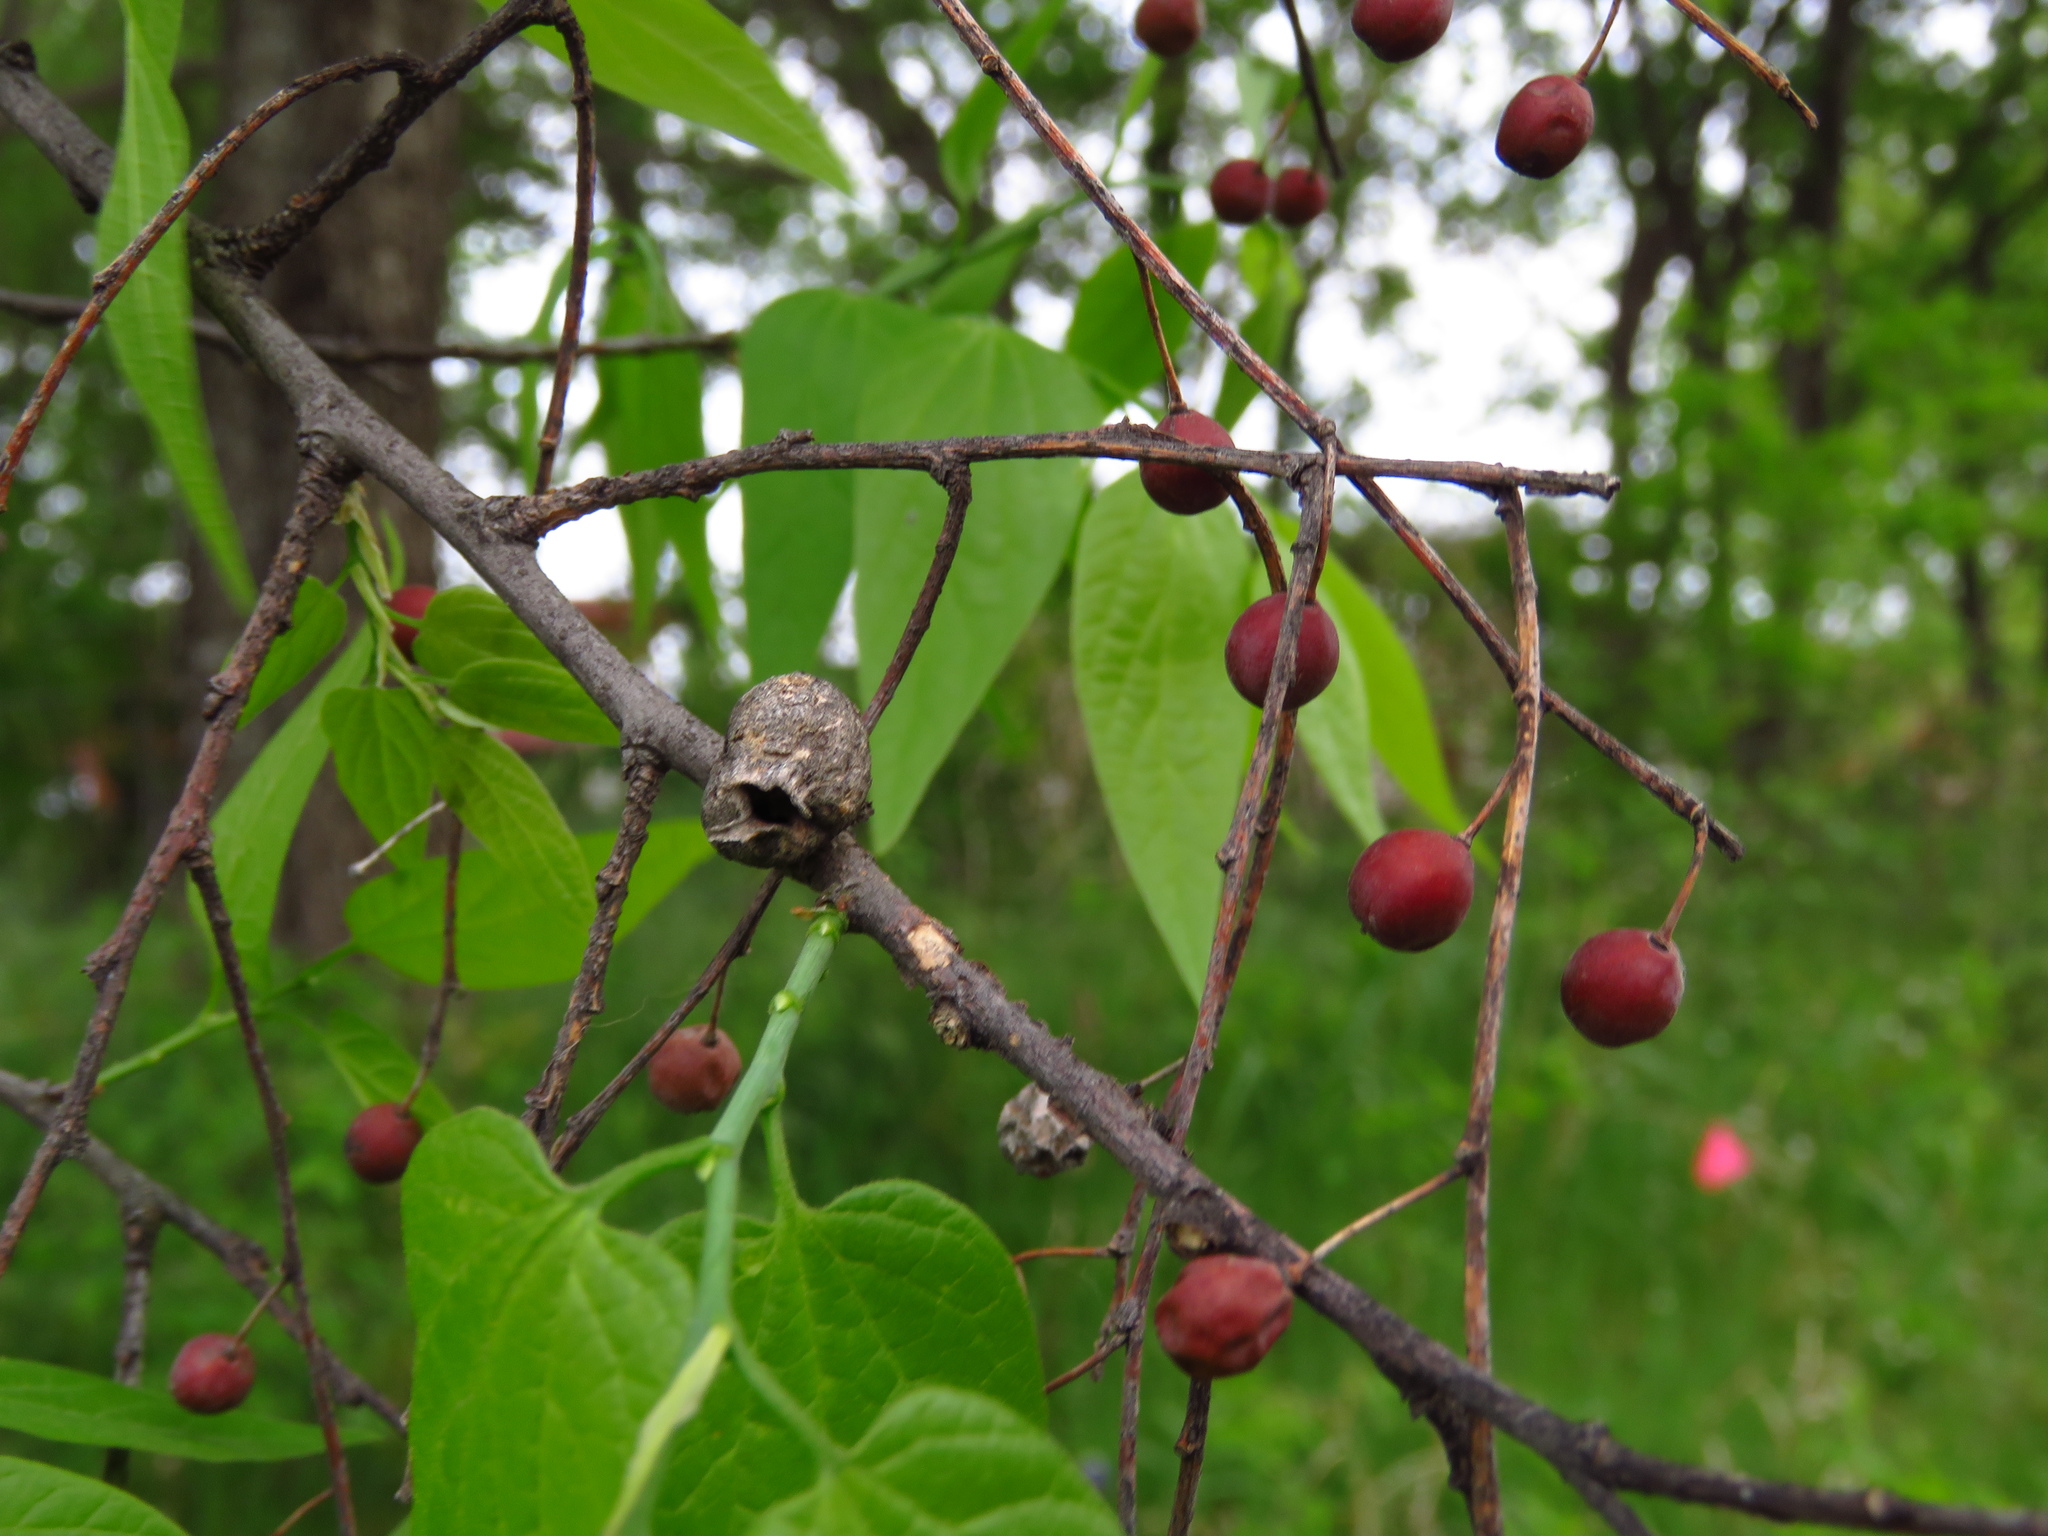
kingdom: Plantae
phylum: Tracheophyta
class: Magnoliopsida
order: Rosales
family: Cannabaceae
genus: Celtis
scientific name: Celtis laevigata
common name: Sugarberry
